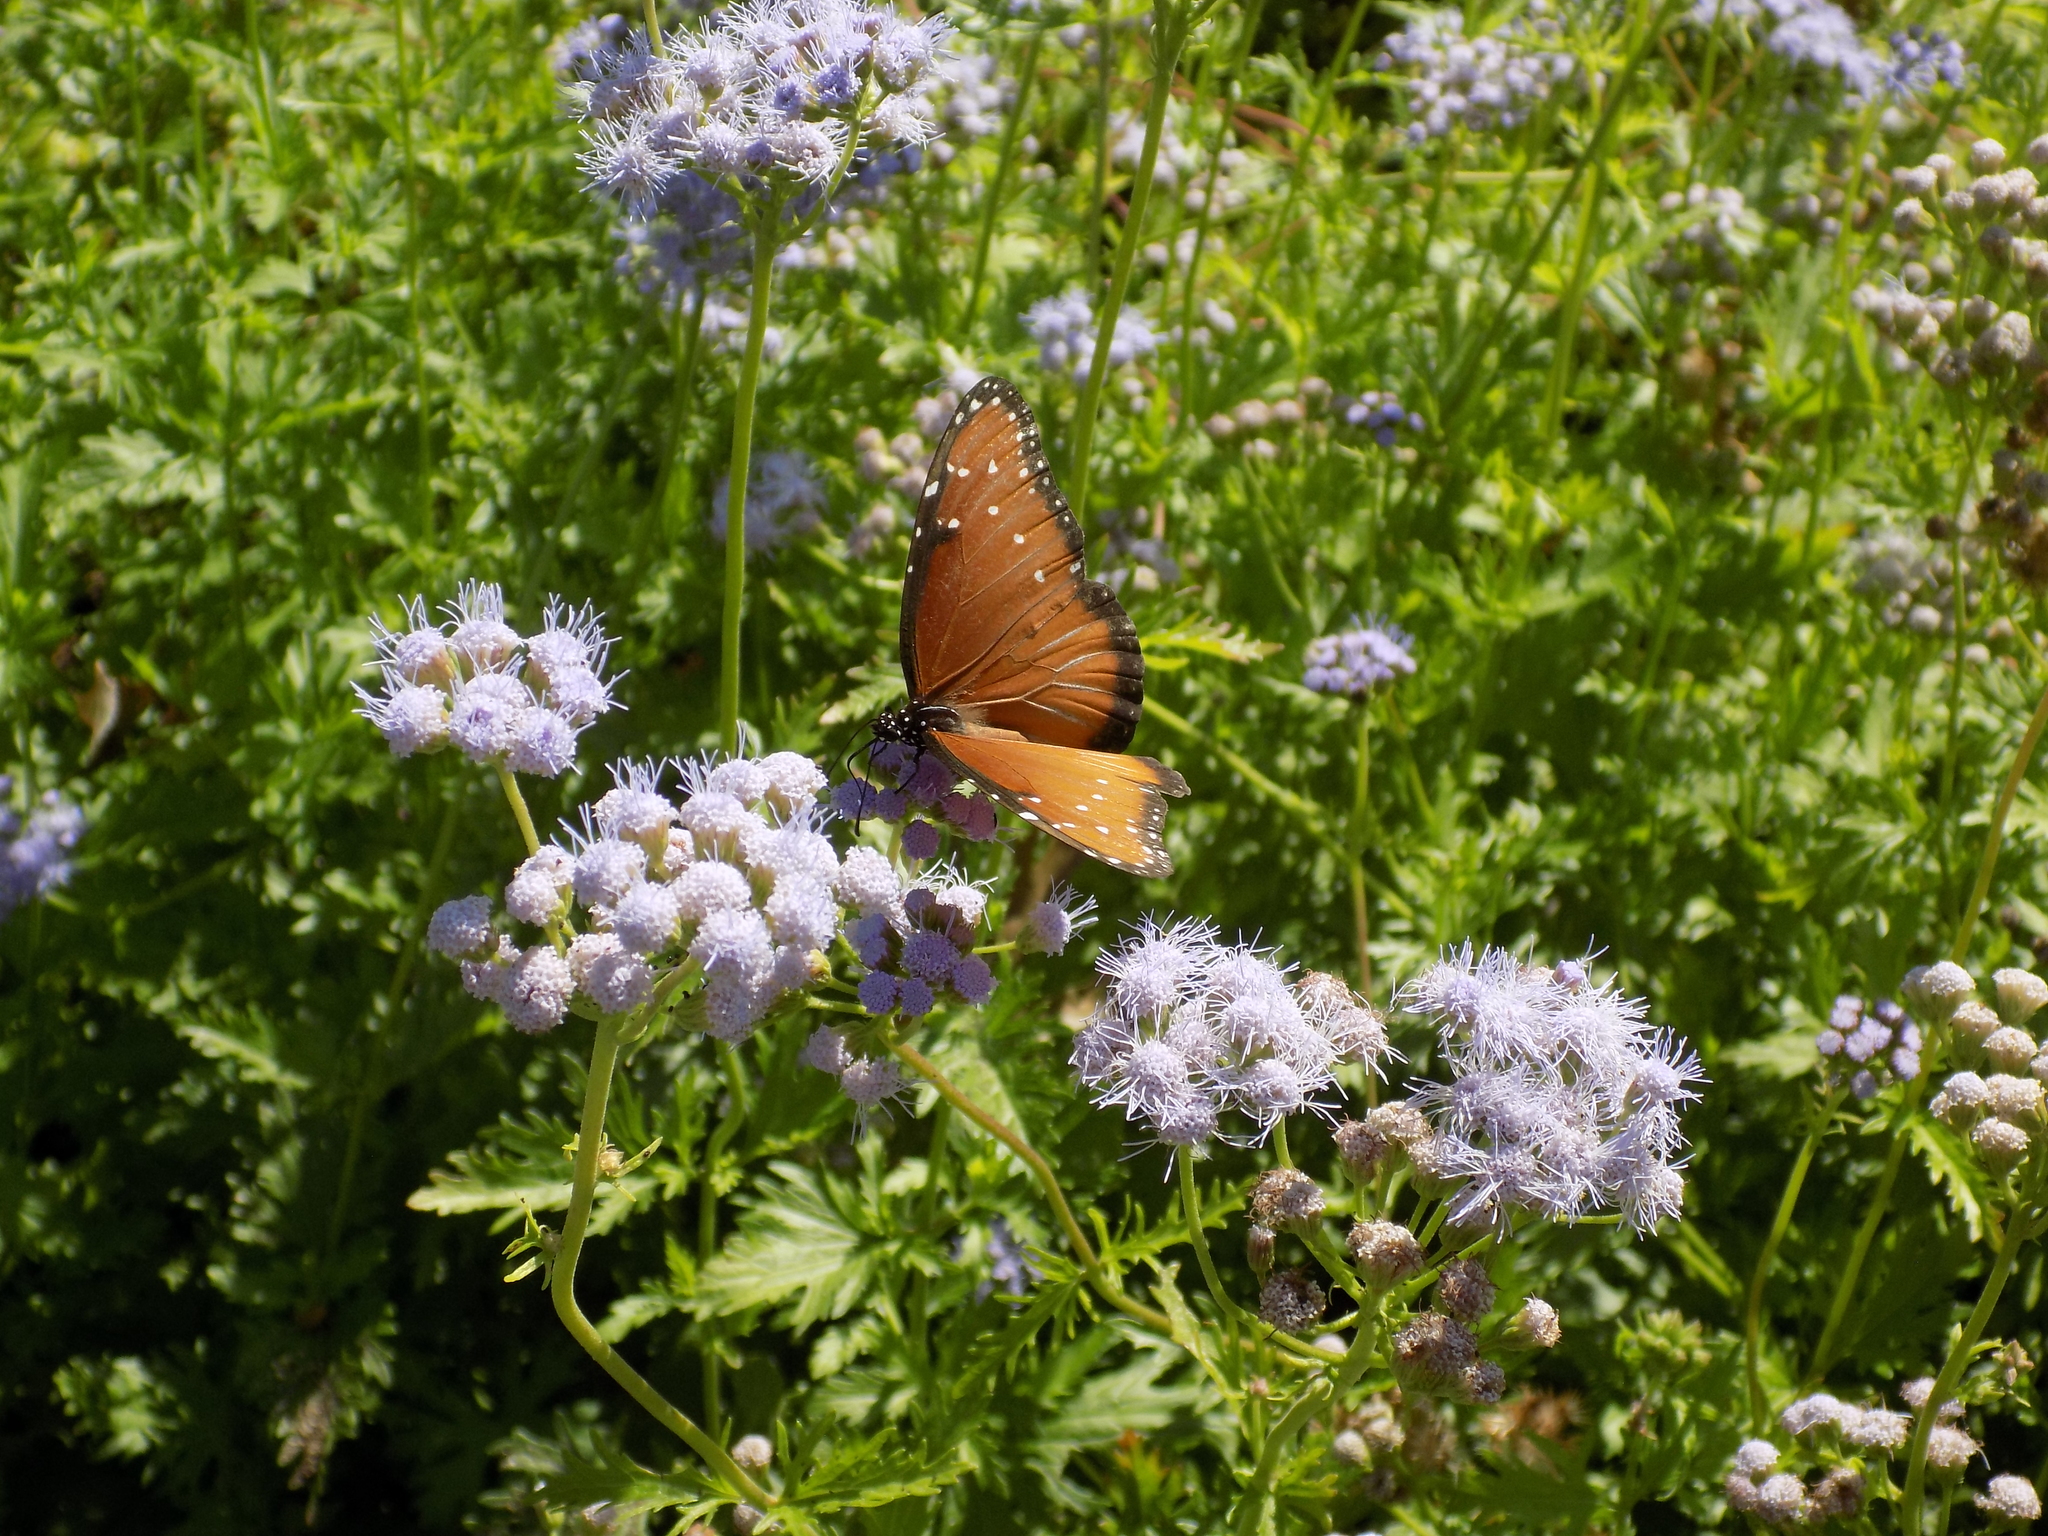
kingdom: Animalia
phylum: Arthropoda
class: Insecta
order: Lepidoptera
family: Nymphalidae
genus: Danaus
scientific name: Danaus gilippus
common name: Queen
